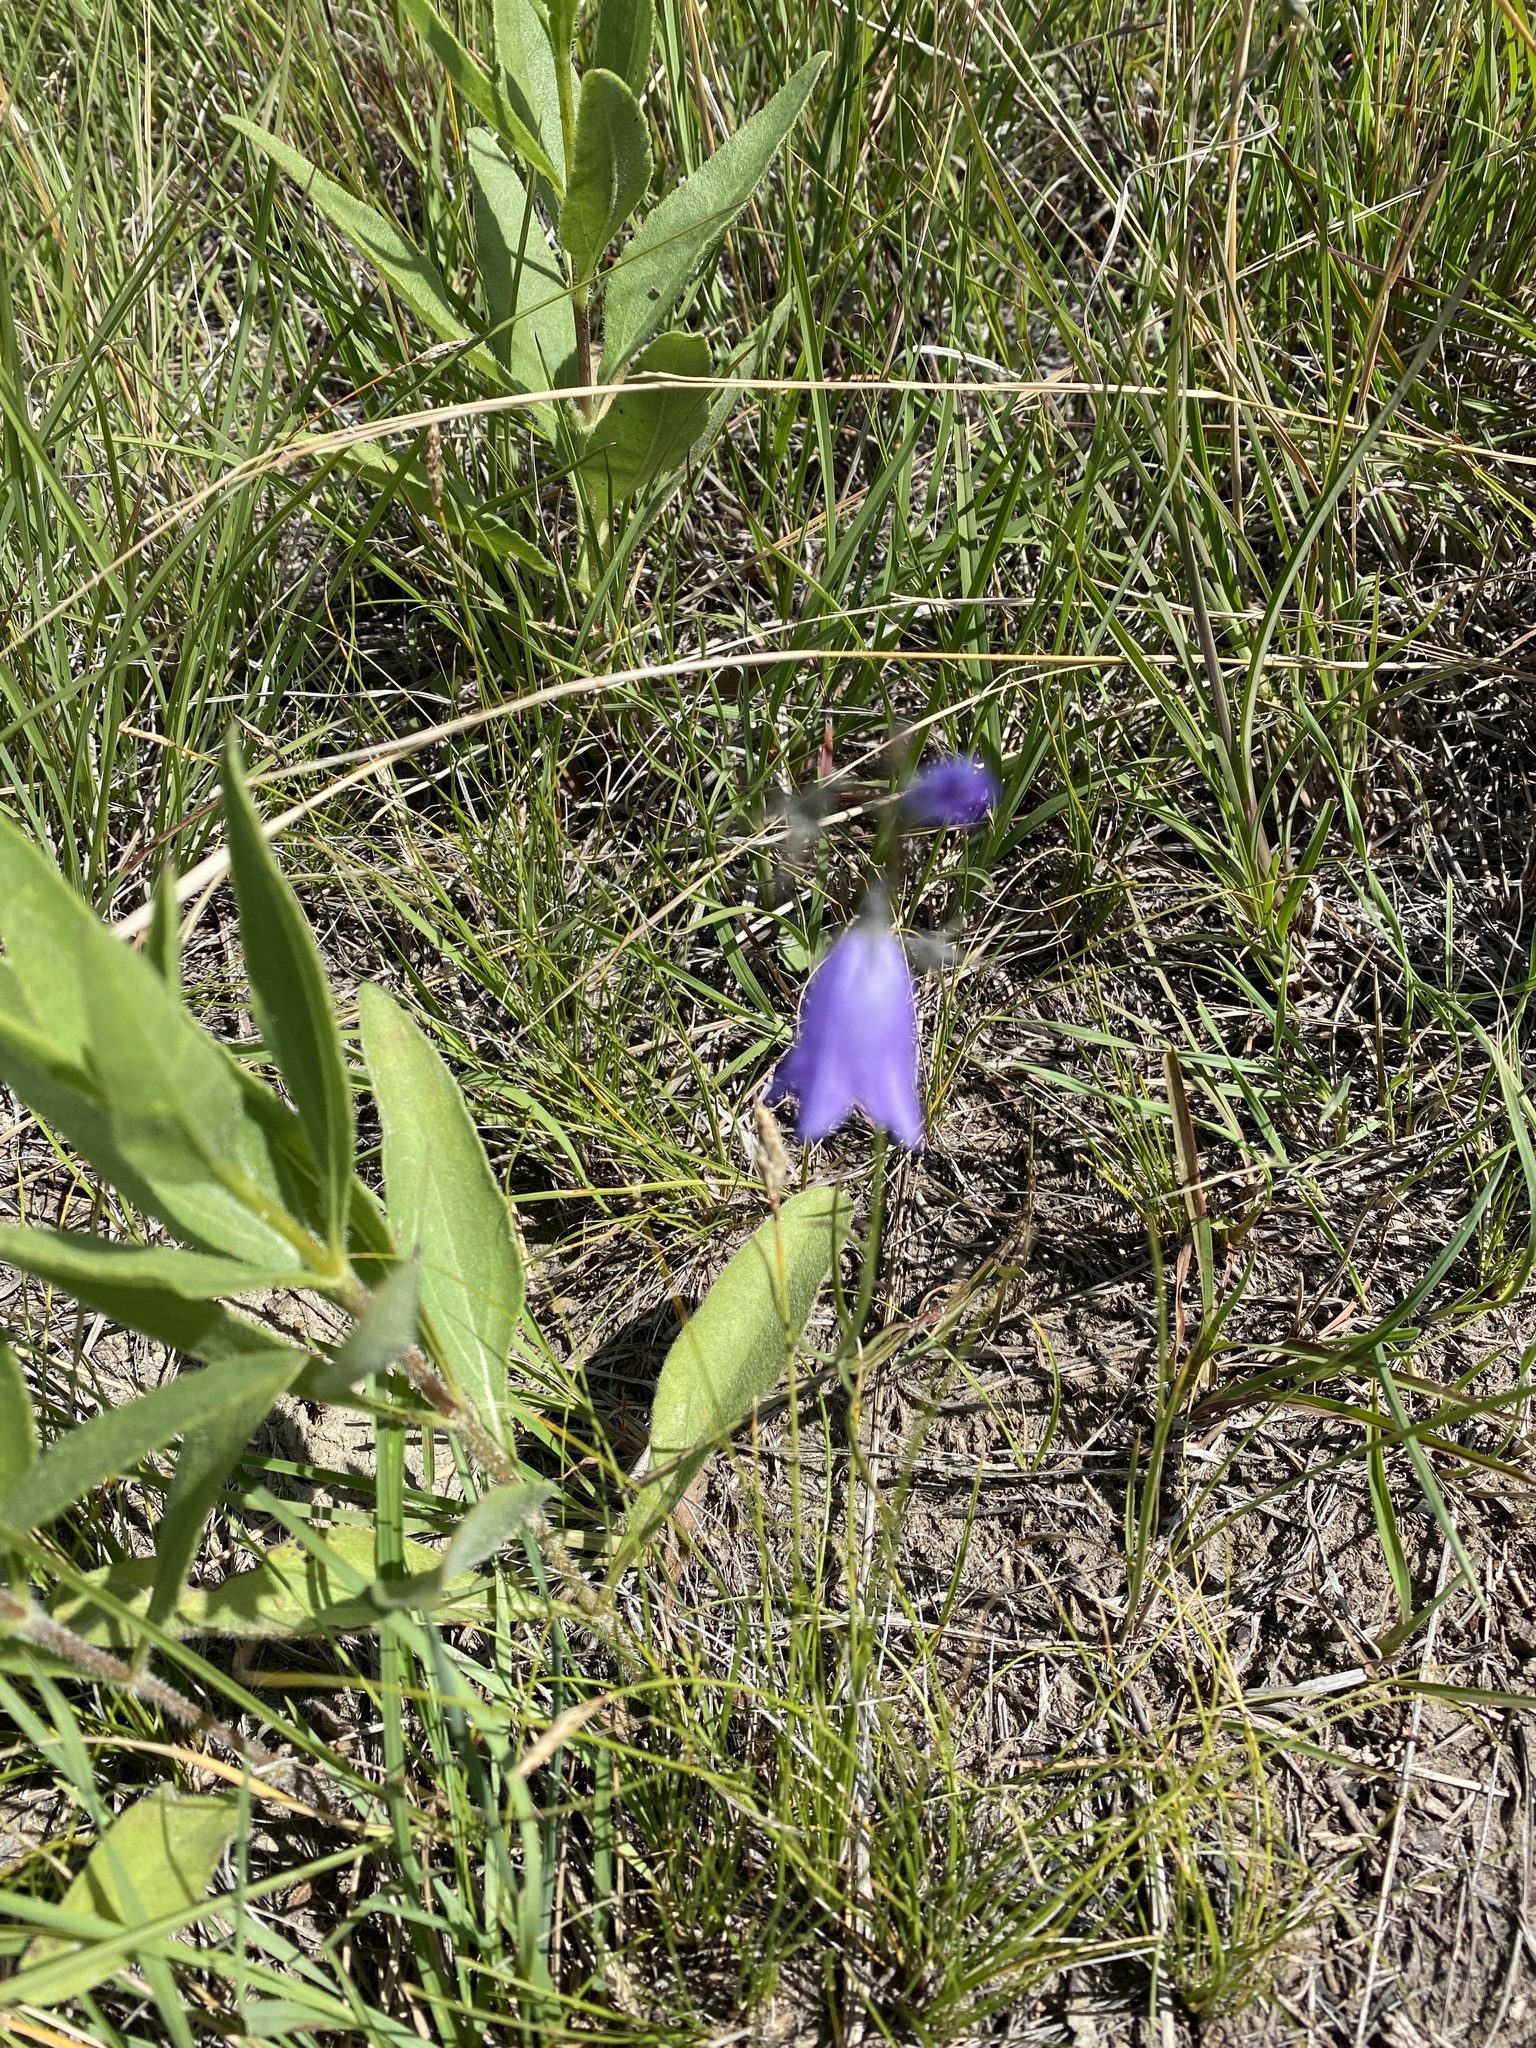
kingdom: Plantae
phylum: Tracheophyta
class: Magnoliopsida
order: Asterales
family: Campanulaceae
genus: Campanula
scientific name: Campanula petiolata
